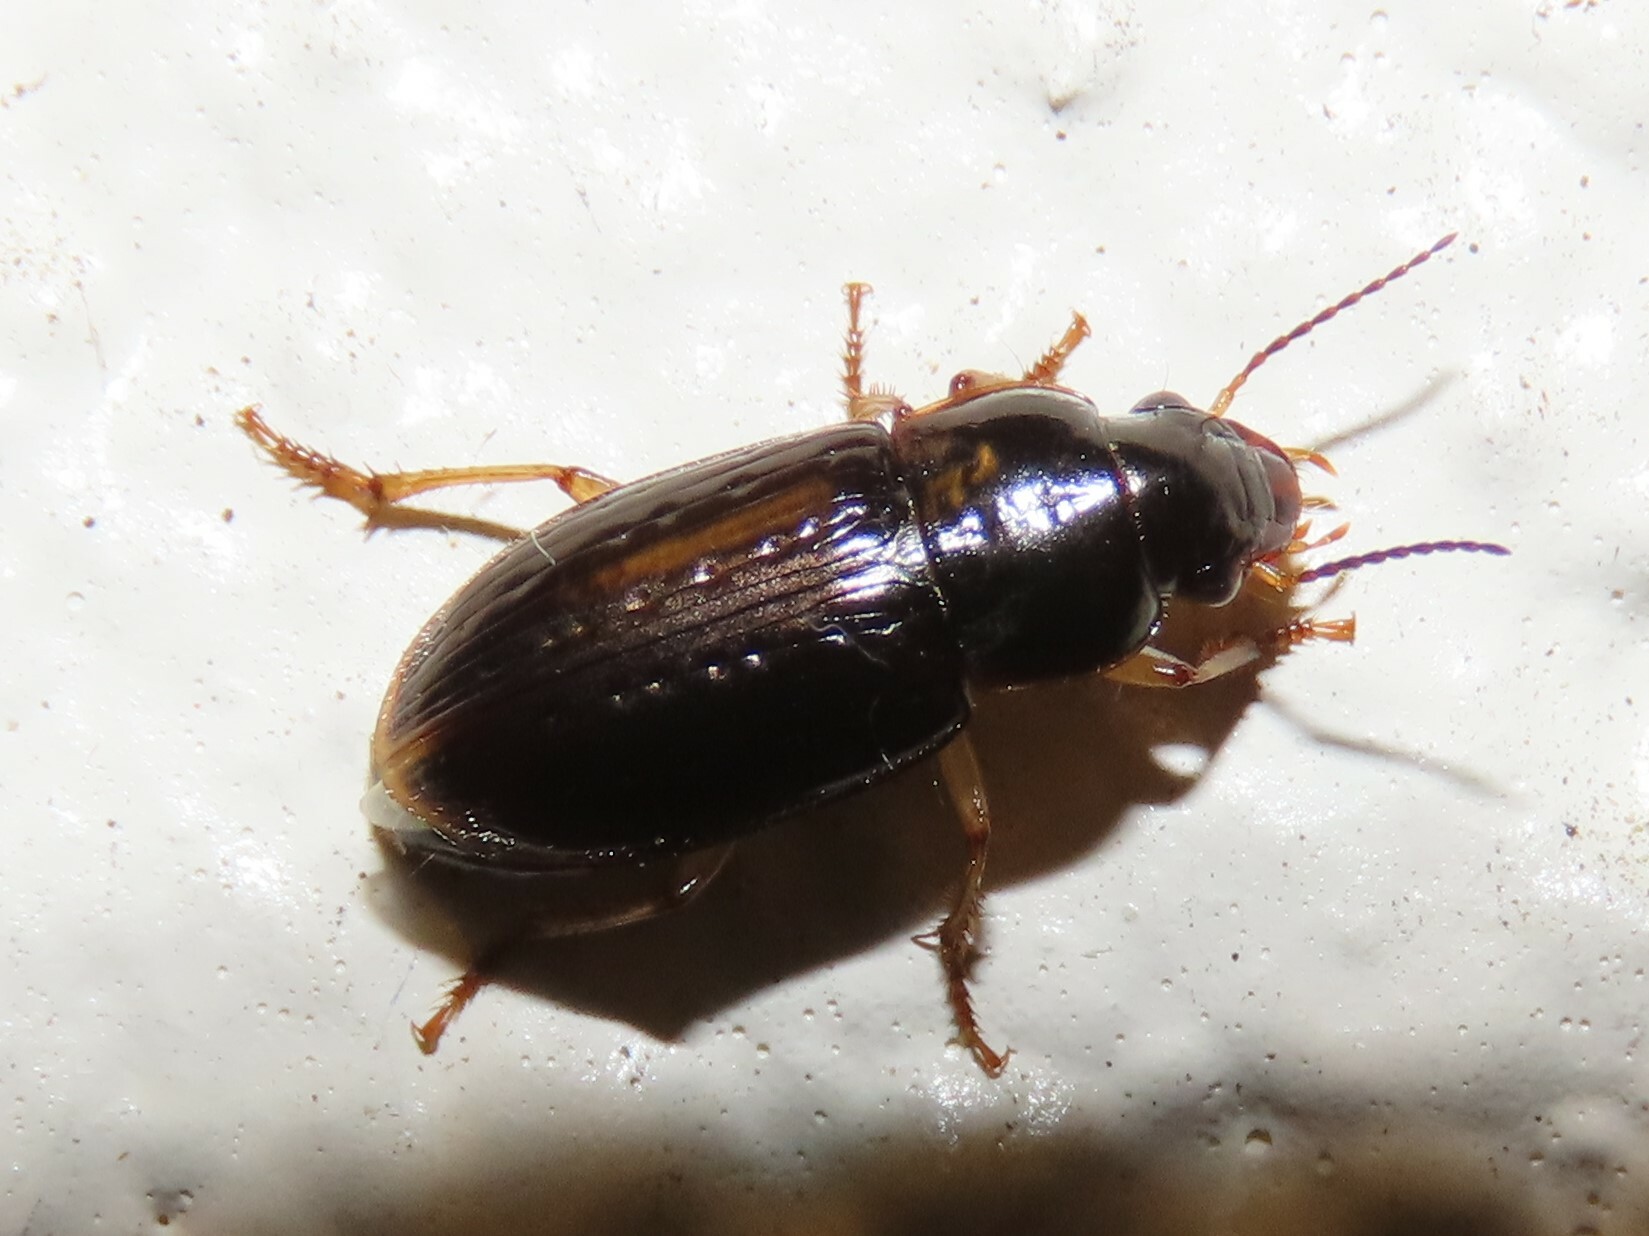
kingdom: Animalia
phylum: Arthropoda
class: Insecta
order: Coleoptera
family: Carabidae
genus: Selenophorus
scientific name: Selenophorus palliatus
